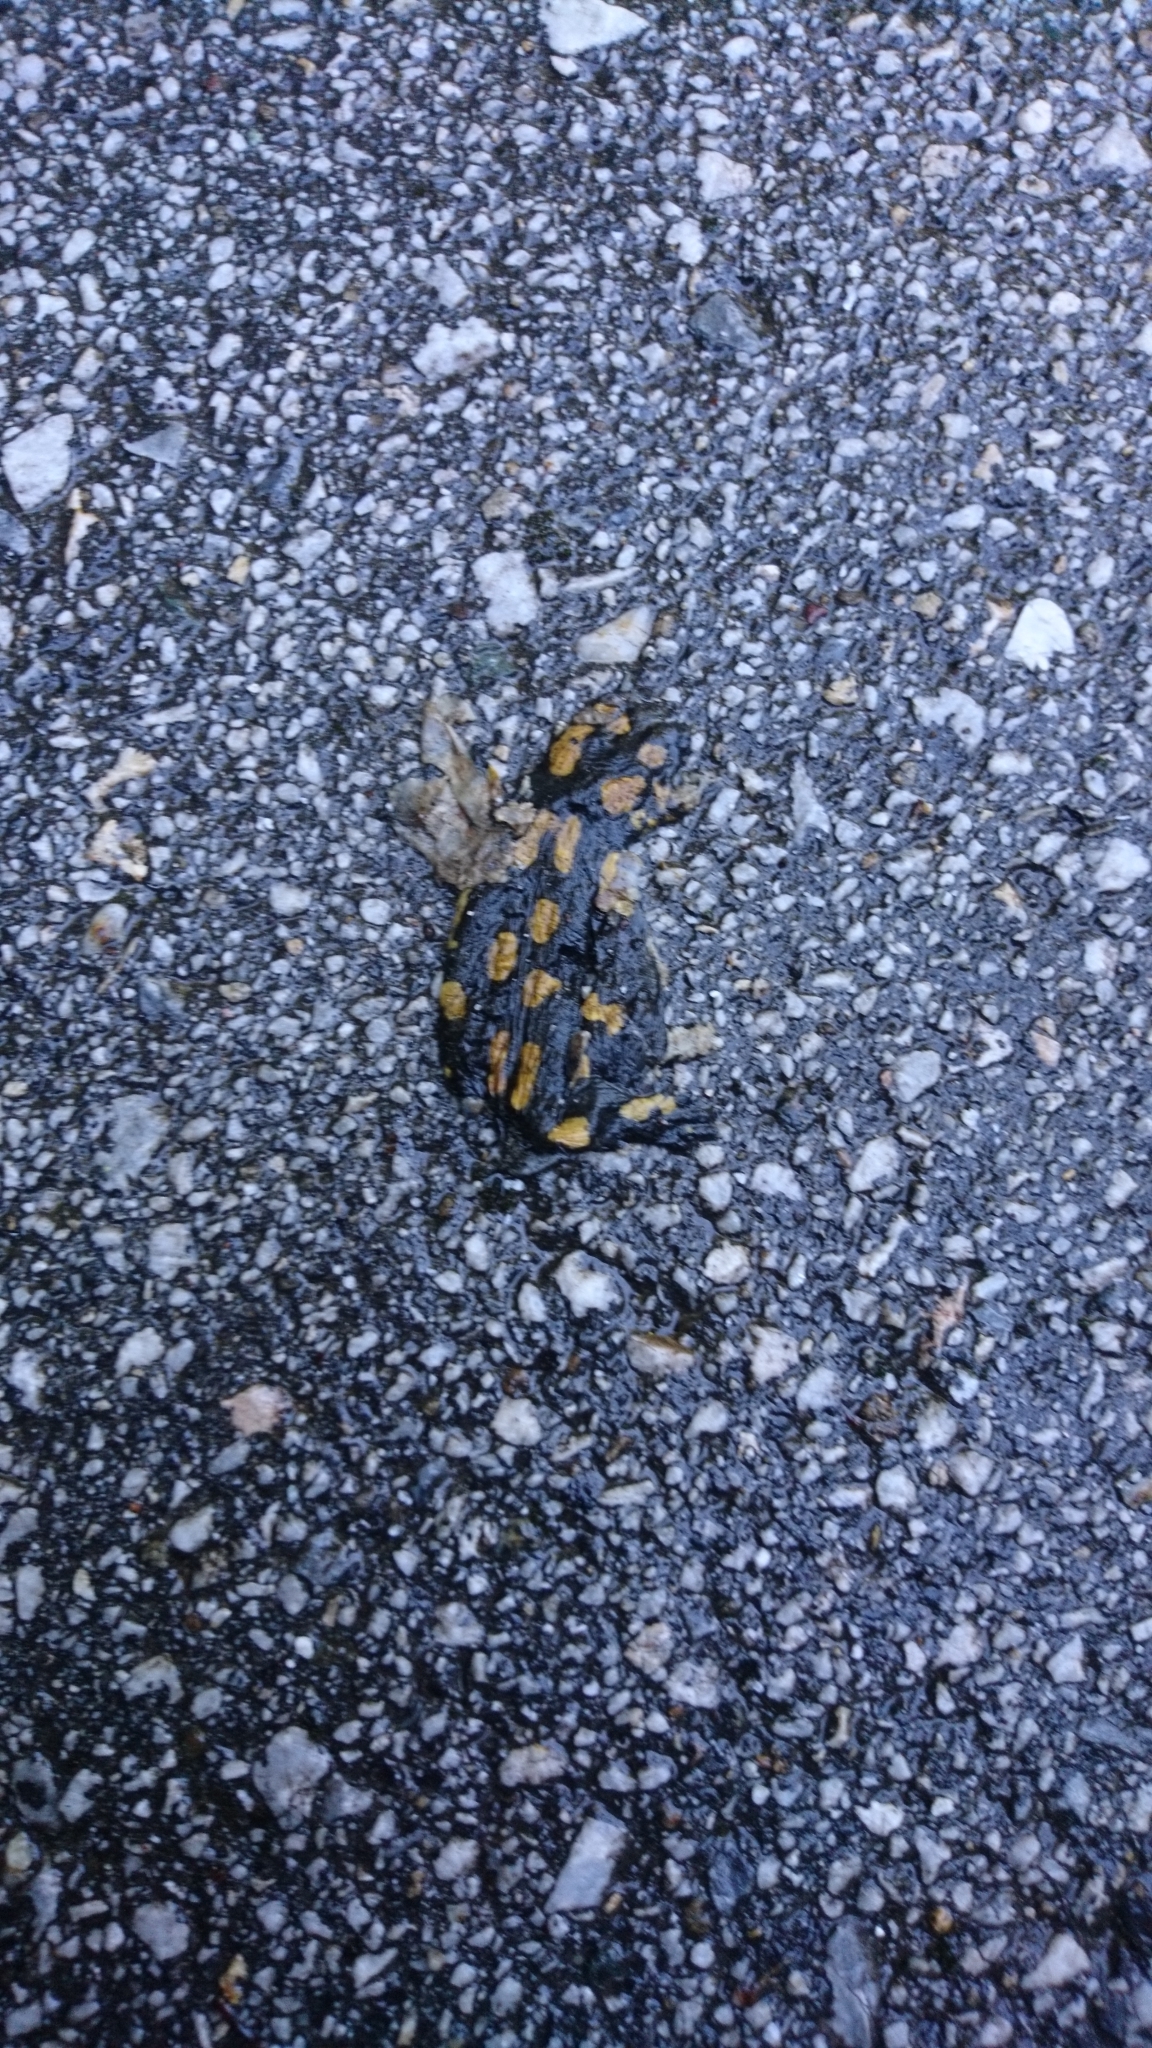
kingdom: Animalia
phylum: Chordata
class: Amphibia
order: Caudata
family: Salamandridae
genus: Salamandra
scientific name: Salamandra salamandra
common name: Fire salamander
